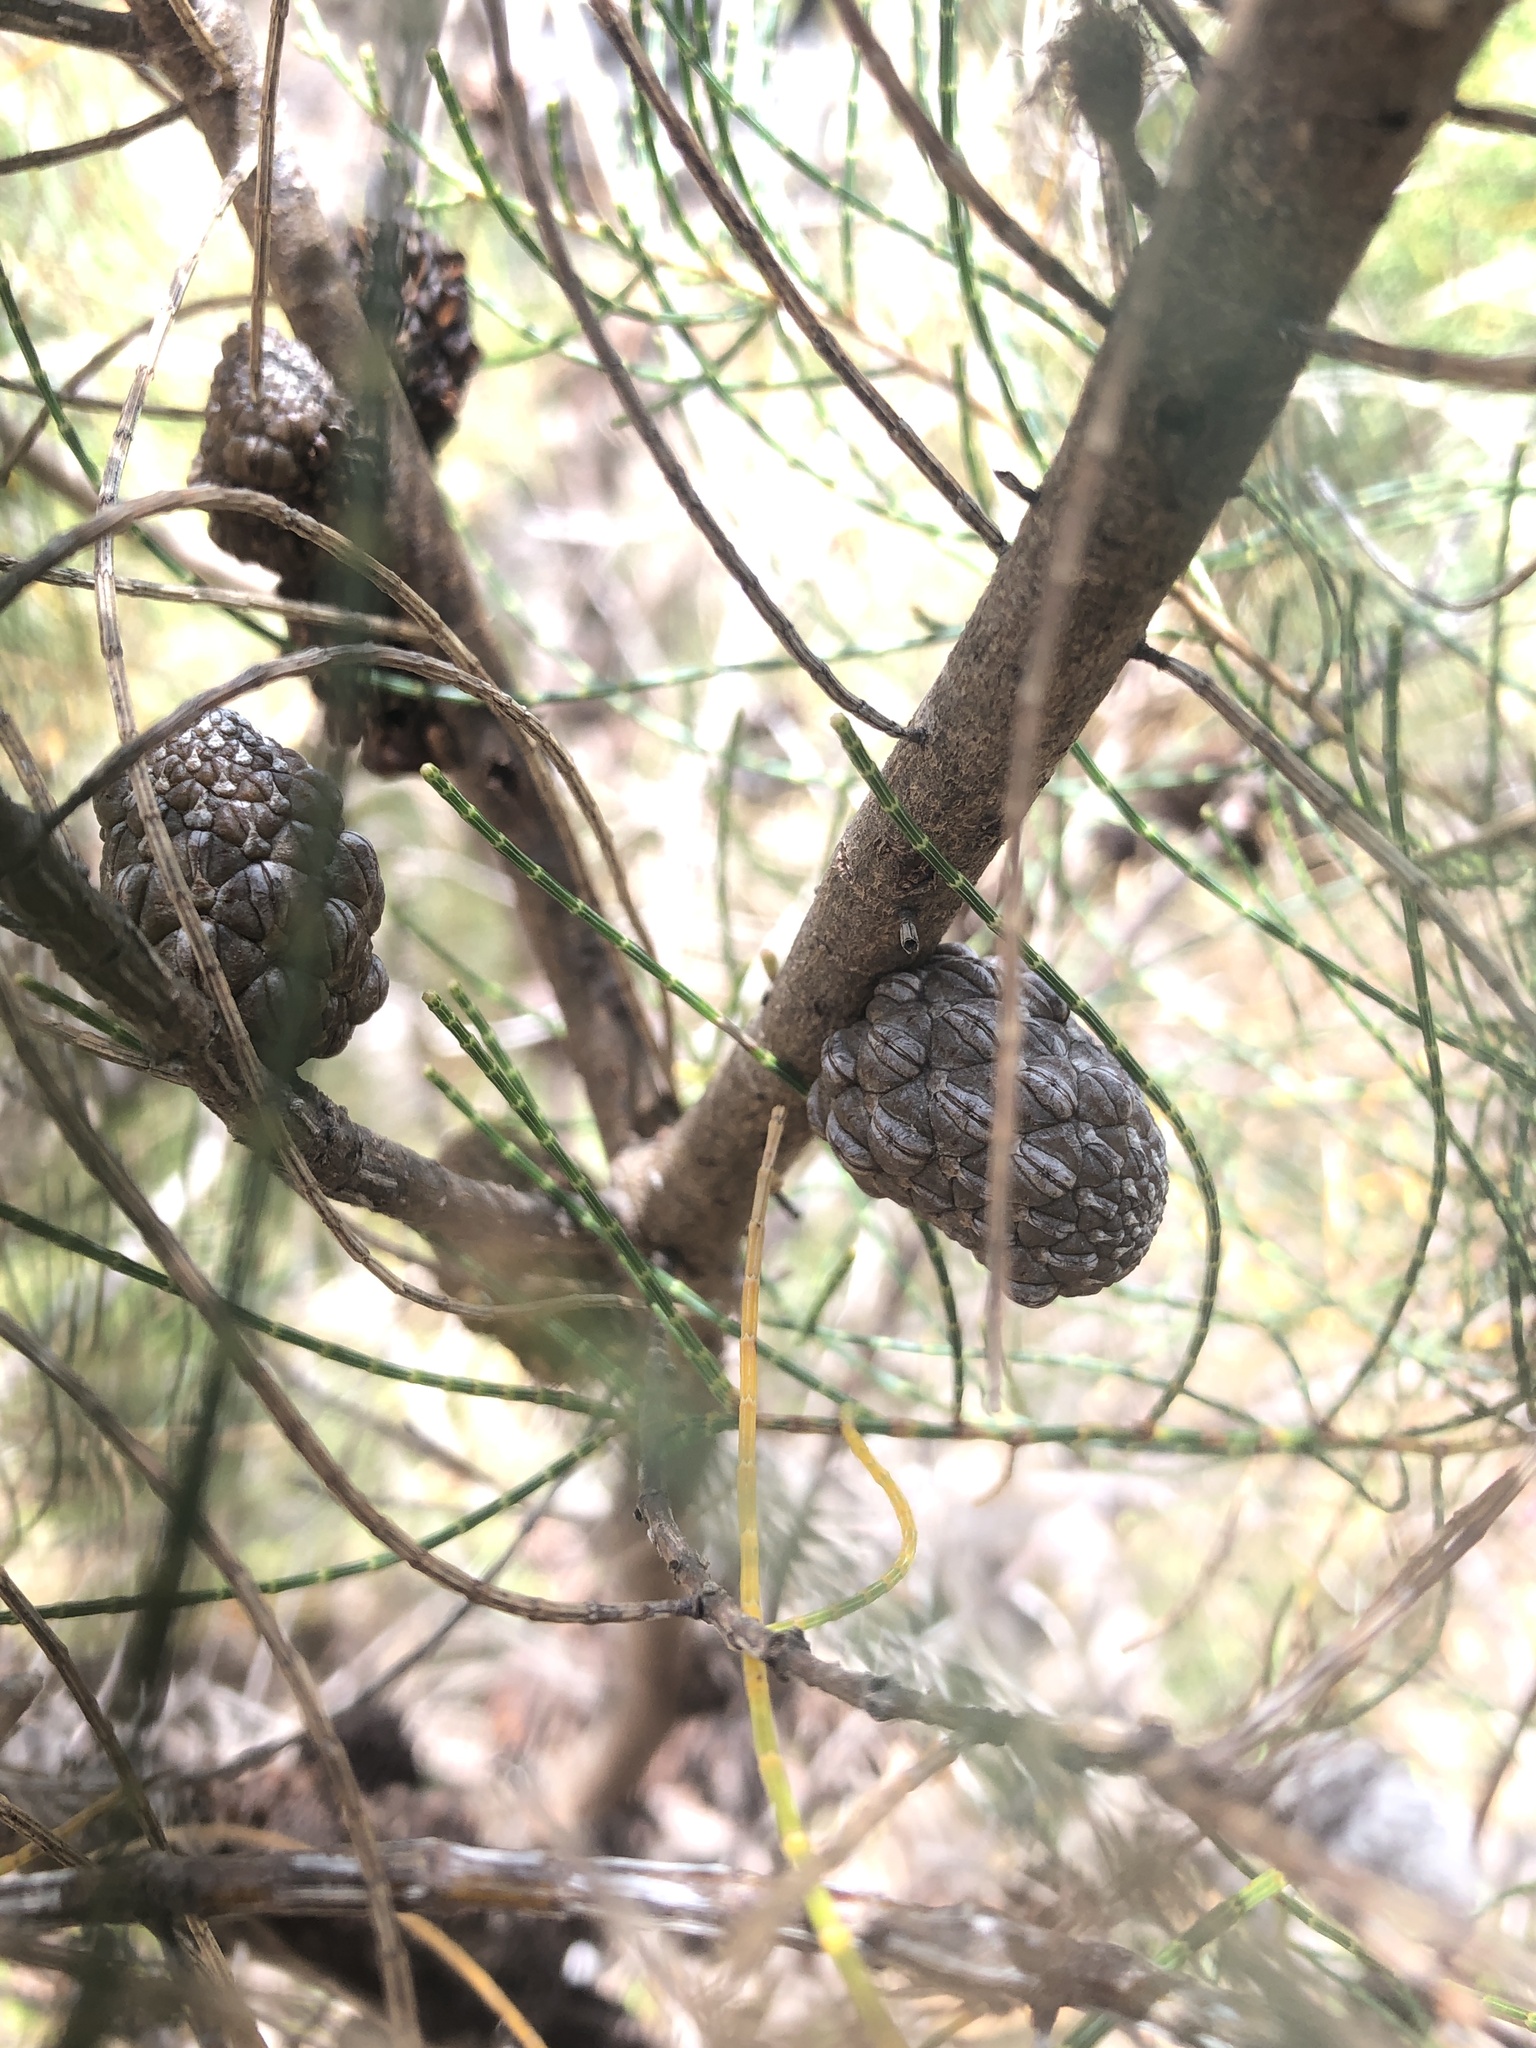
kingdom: Plantae
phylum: Tracheophyta
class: Magnoliopsida
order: Fagales
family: Casuarinaceae
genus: Allocasuarina
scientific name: Allocasuarina muelleriana
